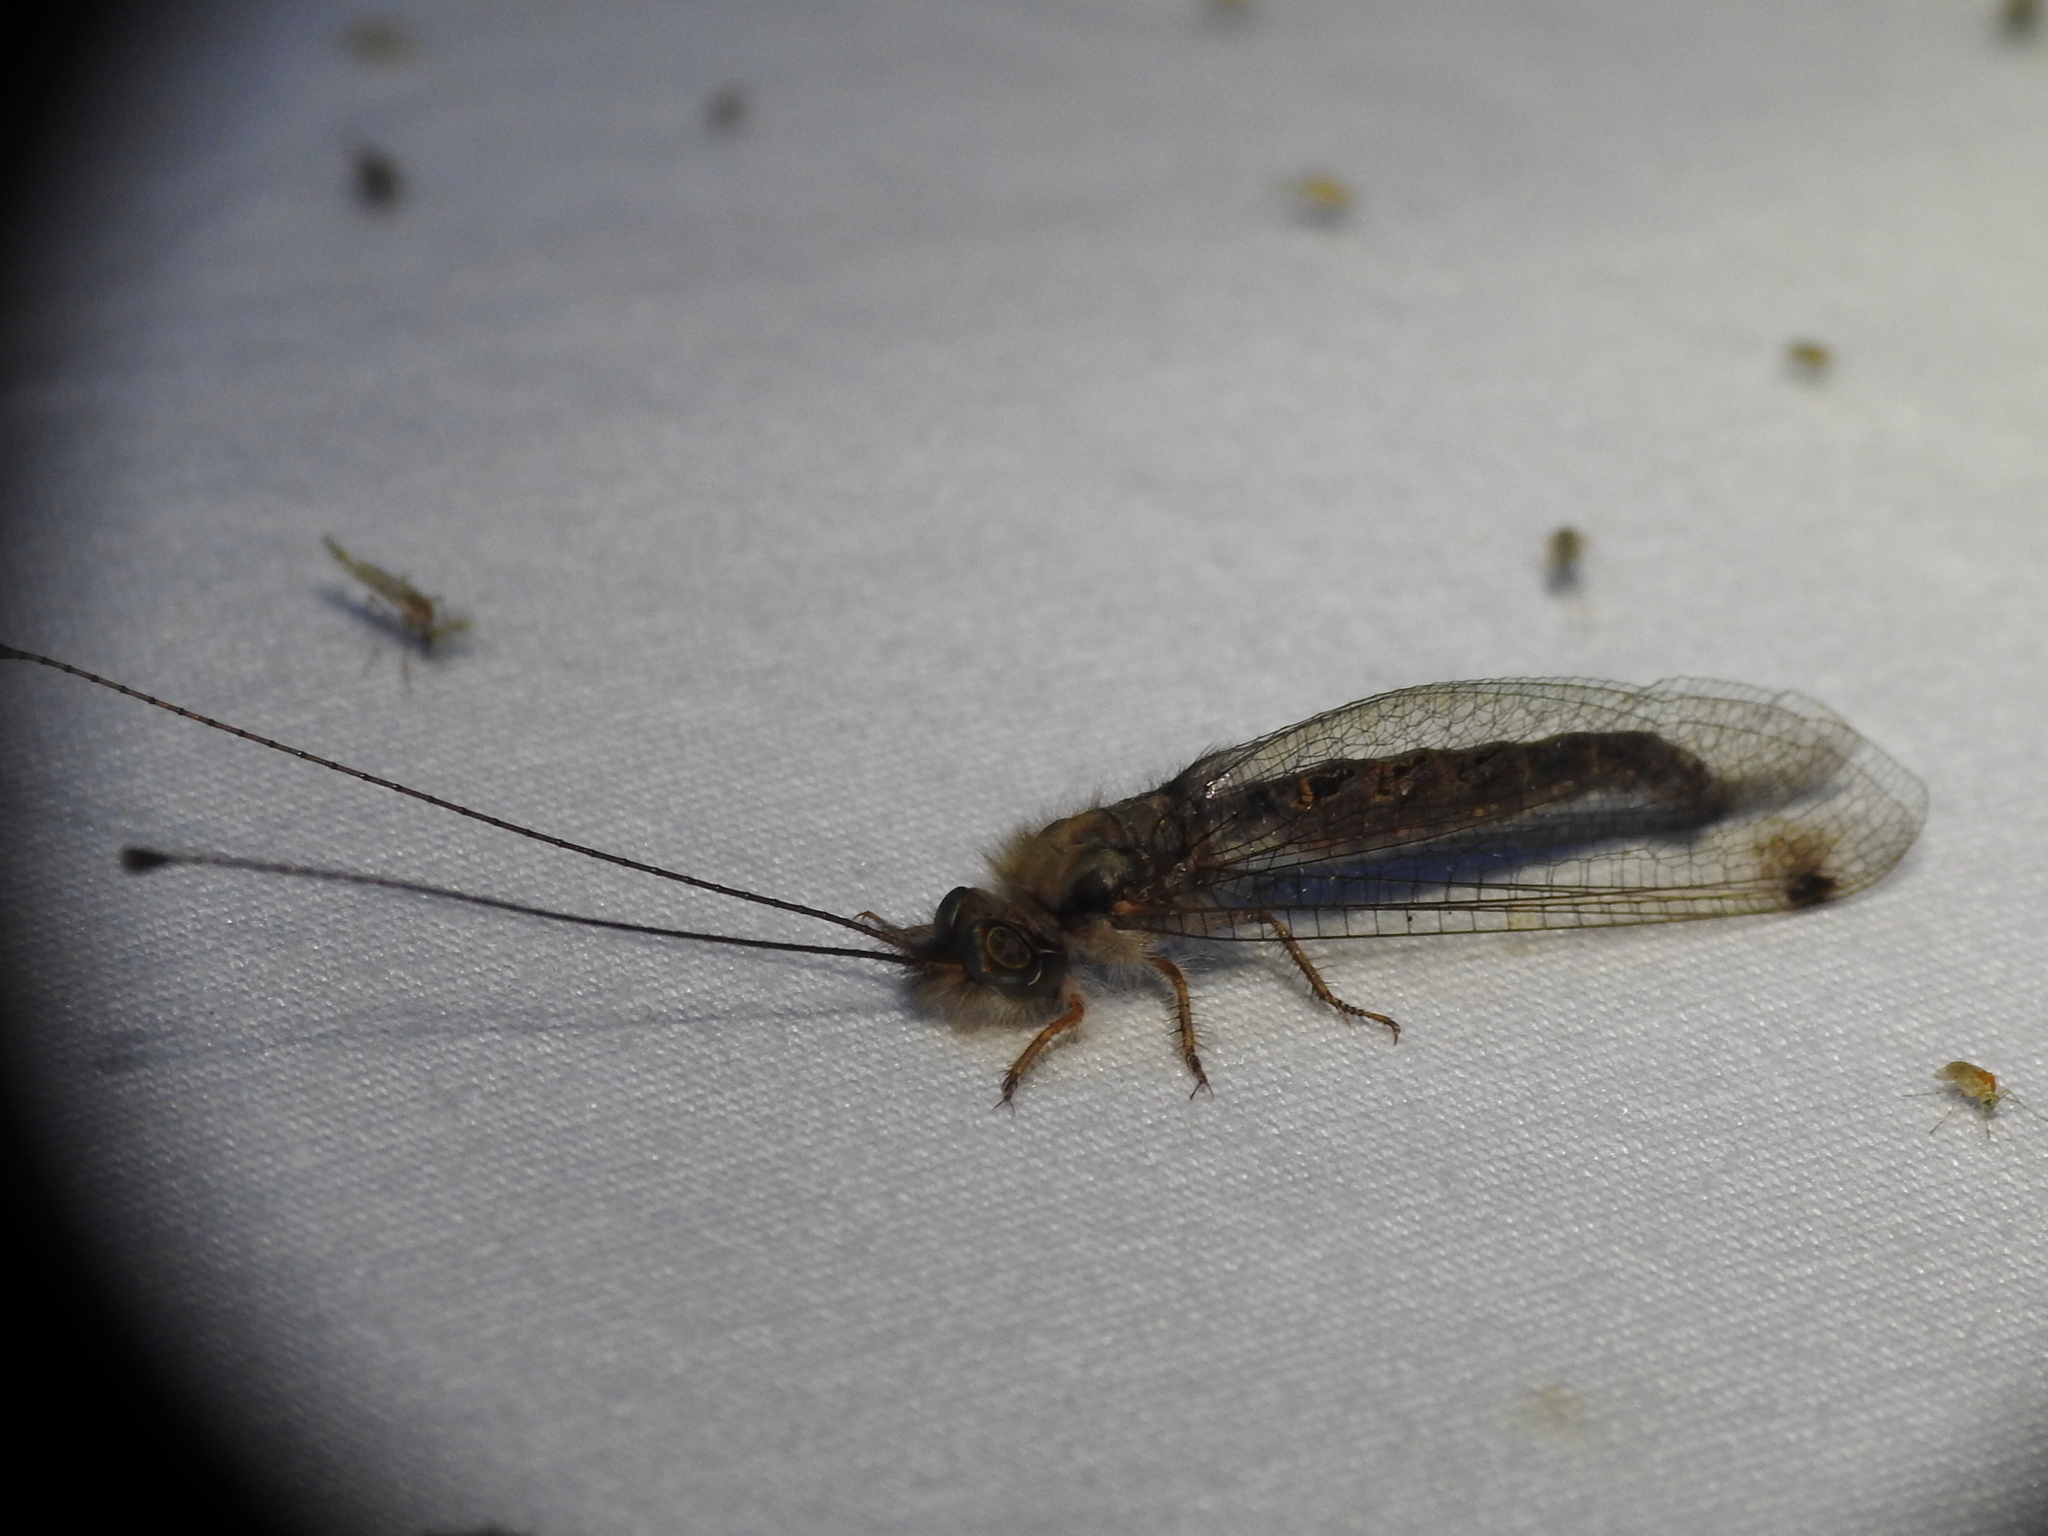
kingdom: Animalia
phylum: Arthropoda
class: Insecta
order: Neuroptera
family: Ascalaphidae
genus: Ululodes
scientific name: Ululodes macleayanus
